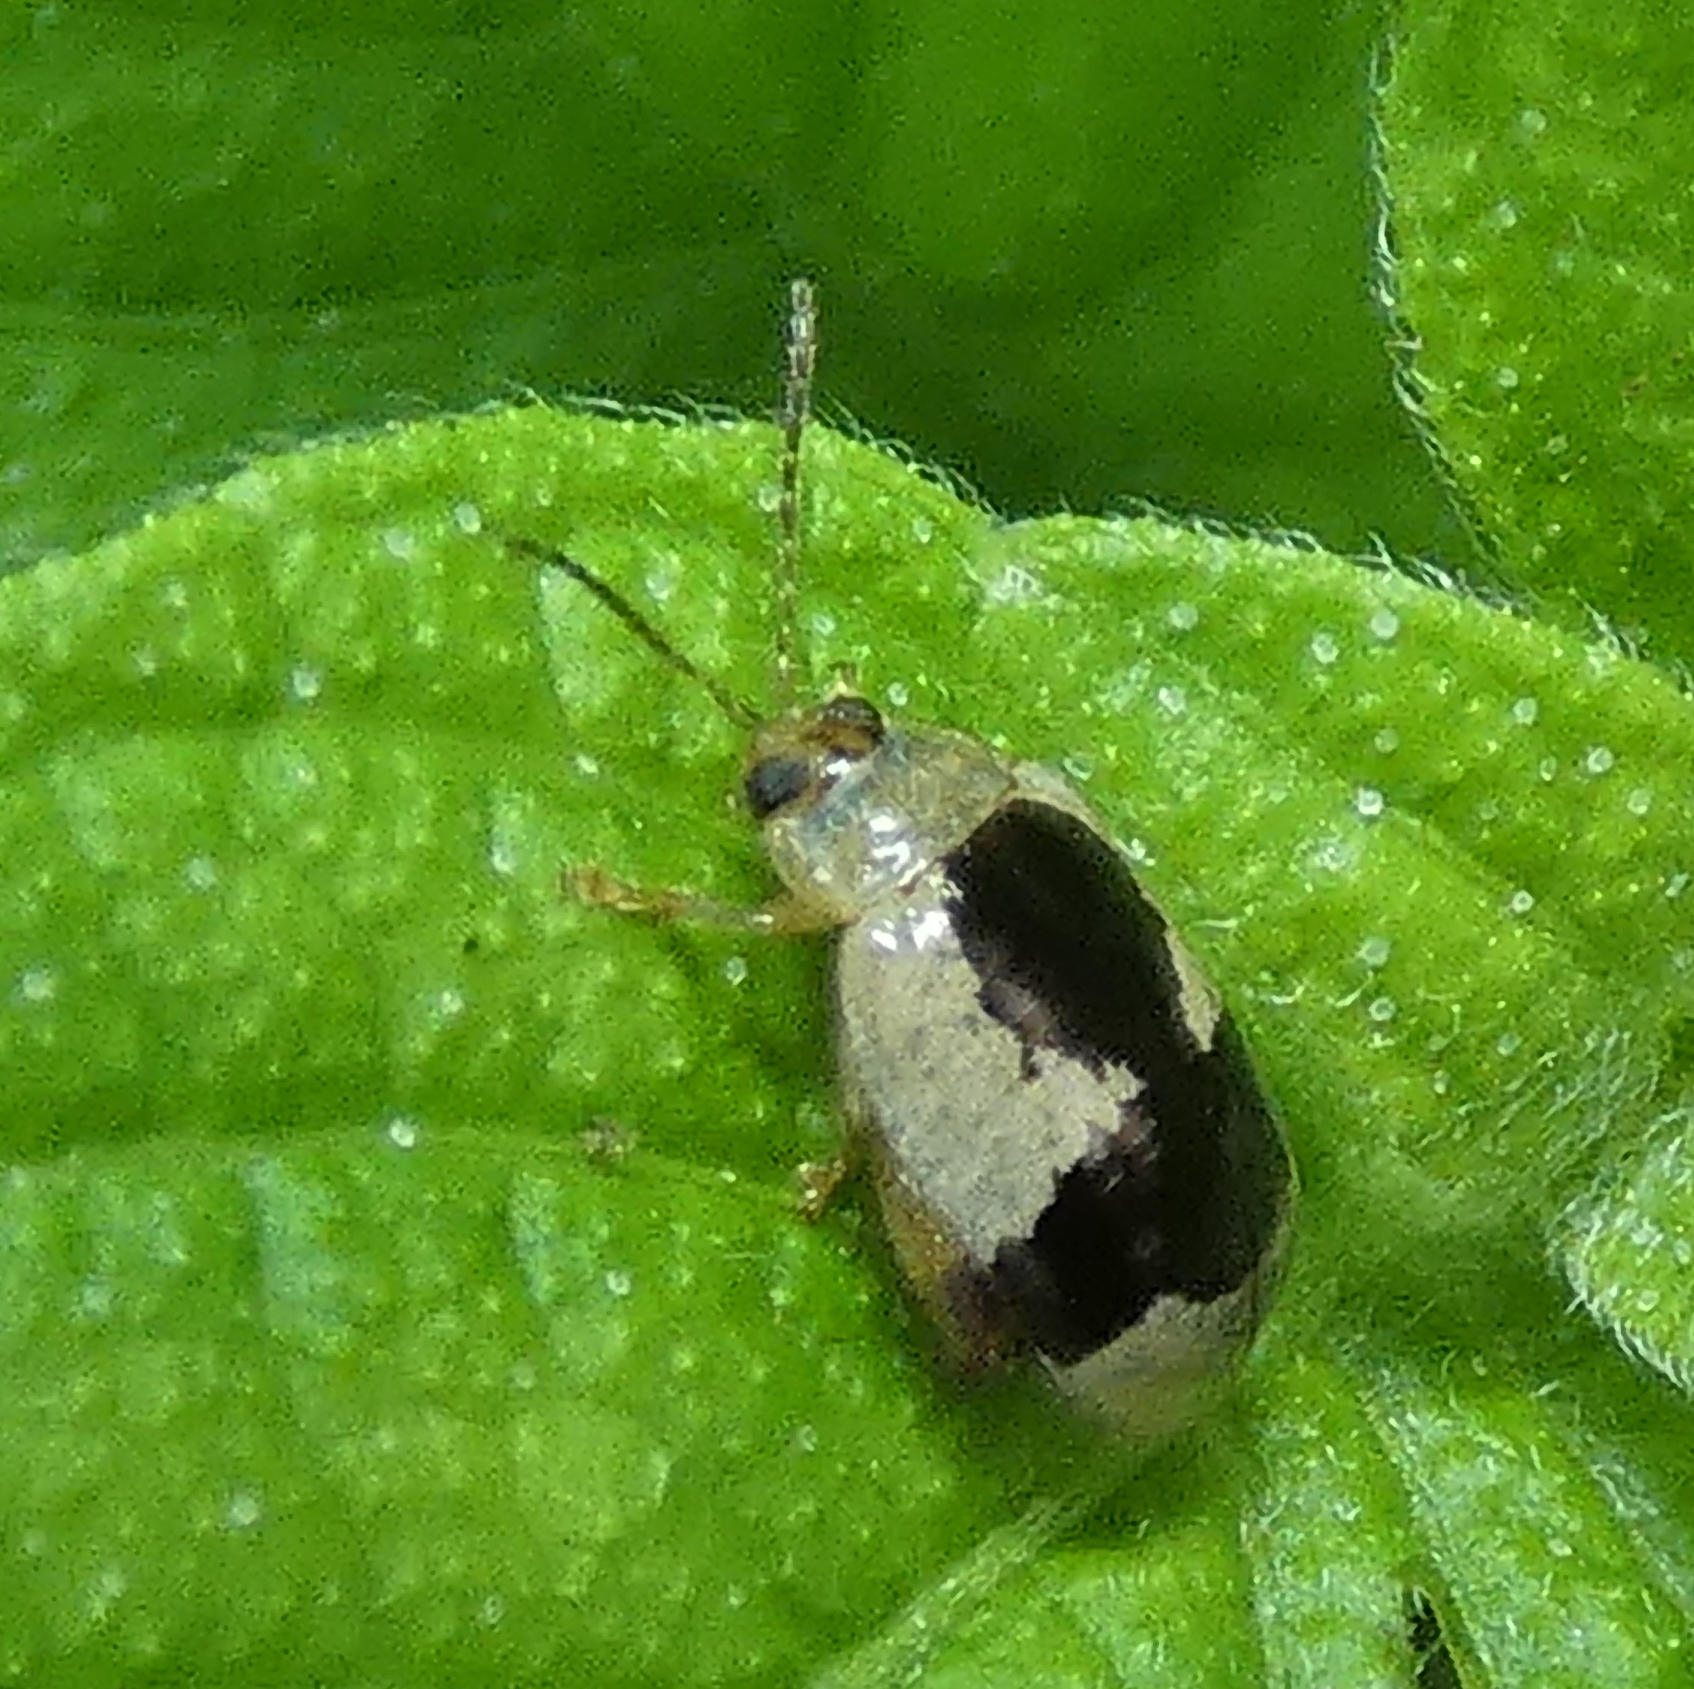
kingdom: Animalia
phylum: Arthropoda
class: Insecta
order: Coleoptera
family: Chrysomelidae
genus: Alagoasa
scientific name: Alagoasa
